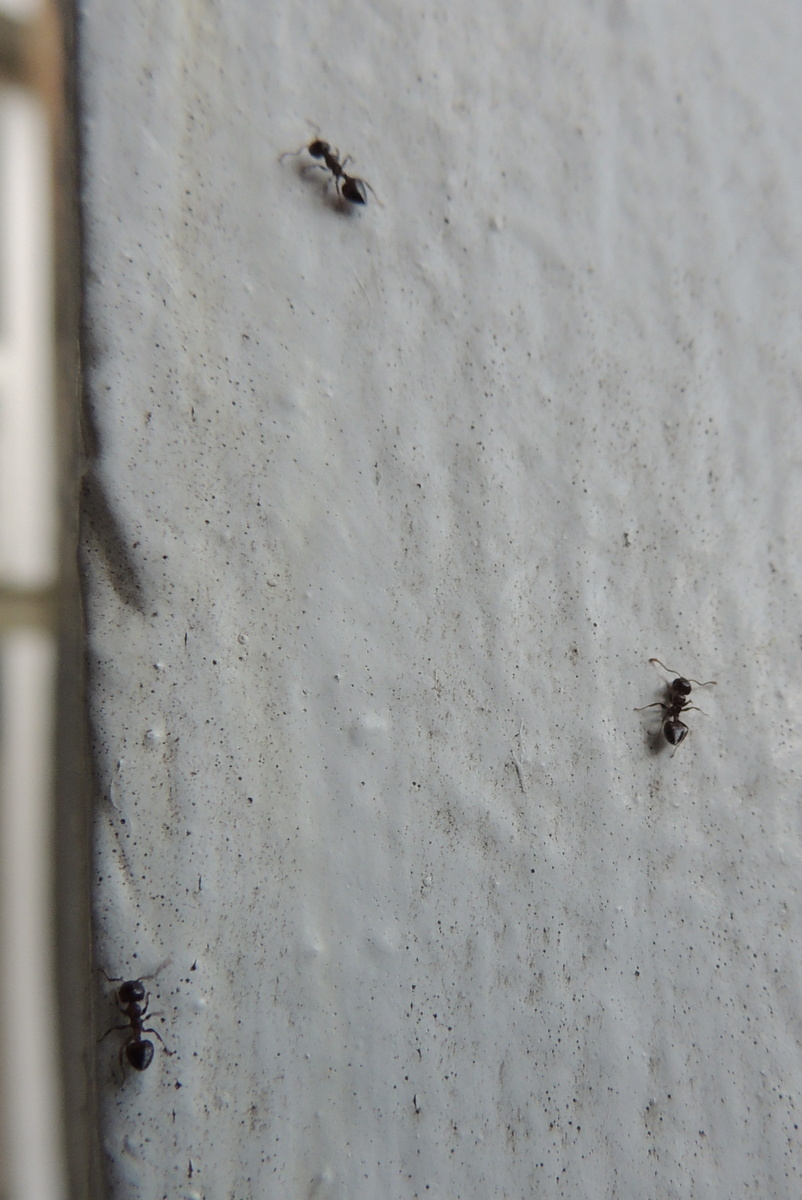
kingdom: Animalia
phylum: Arthropoda
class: Insecta
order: Hymenoptera
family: Formicidae
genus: Crematogaster
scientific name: Crematogaster ashmeadi
